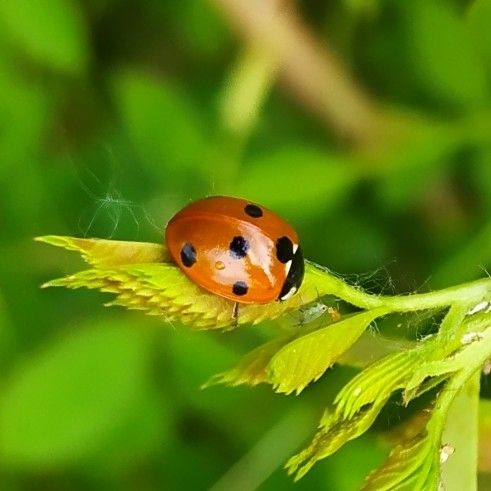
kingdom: Animalia
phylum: Arthropoda
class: Insecta
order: Coleoptera
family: Coccinellidae
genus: Coccinella
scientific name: Coccinella septempunctata
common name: Sevenspotted lady beetle
